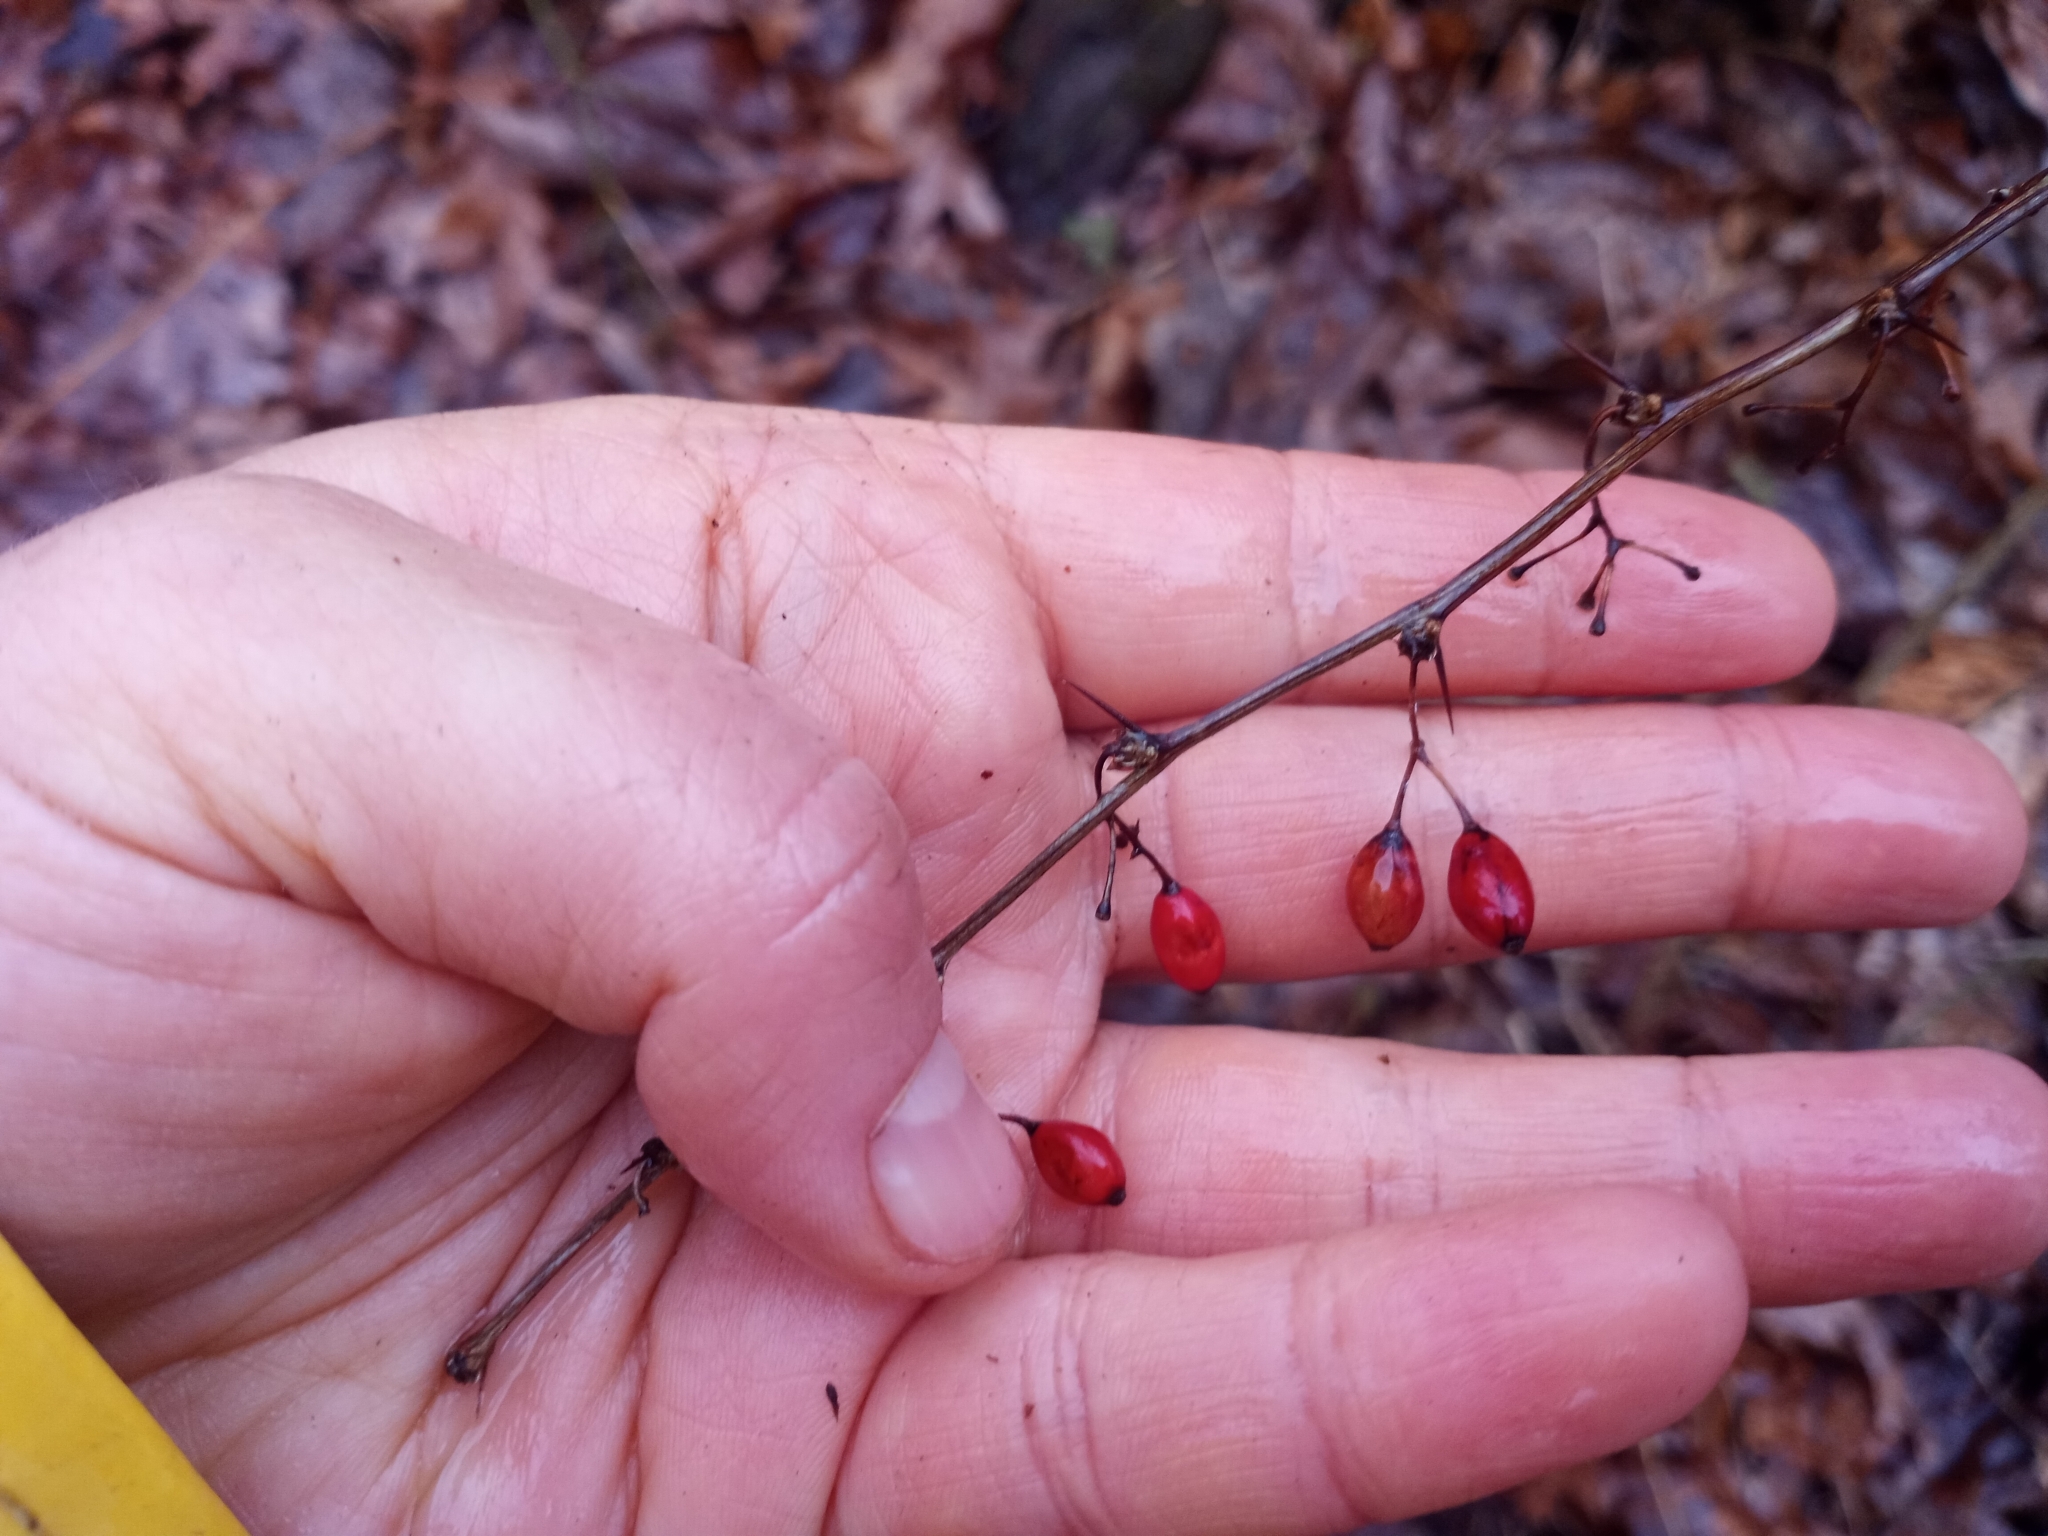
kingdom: Plantae
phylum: Tracheophyta
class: Magnoliopsida
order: Ranunculales
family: Berberidaceae
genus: Berberis
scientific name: Berberis thunbergii
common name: Japanese barberry
